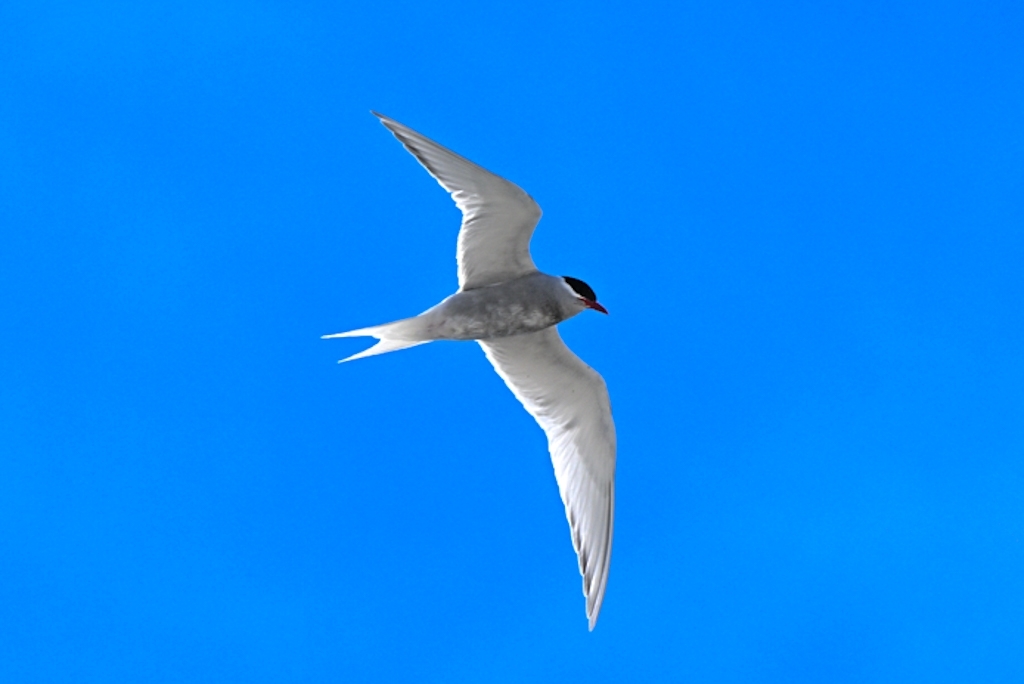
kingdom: Animalia
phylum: Chordata
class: Aves
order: Charadriiformes
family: Laridae
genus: Sterna
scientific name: Sterna vittata
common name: Antarctic tern
